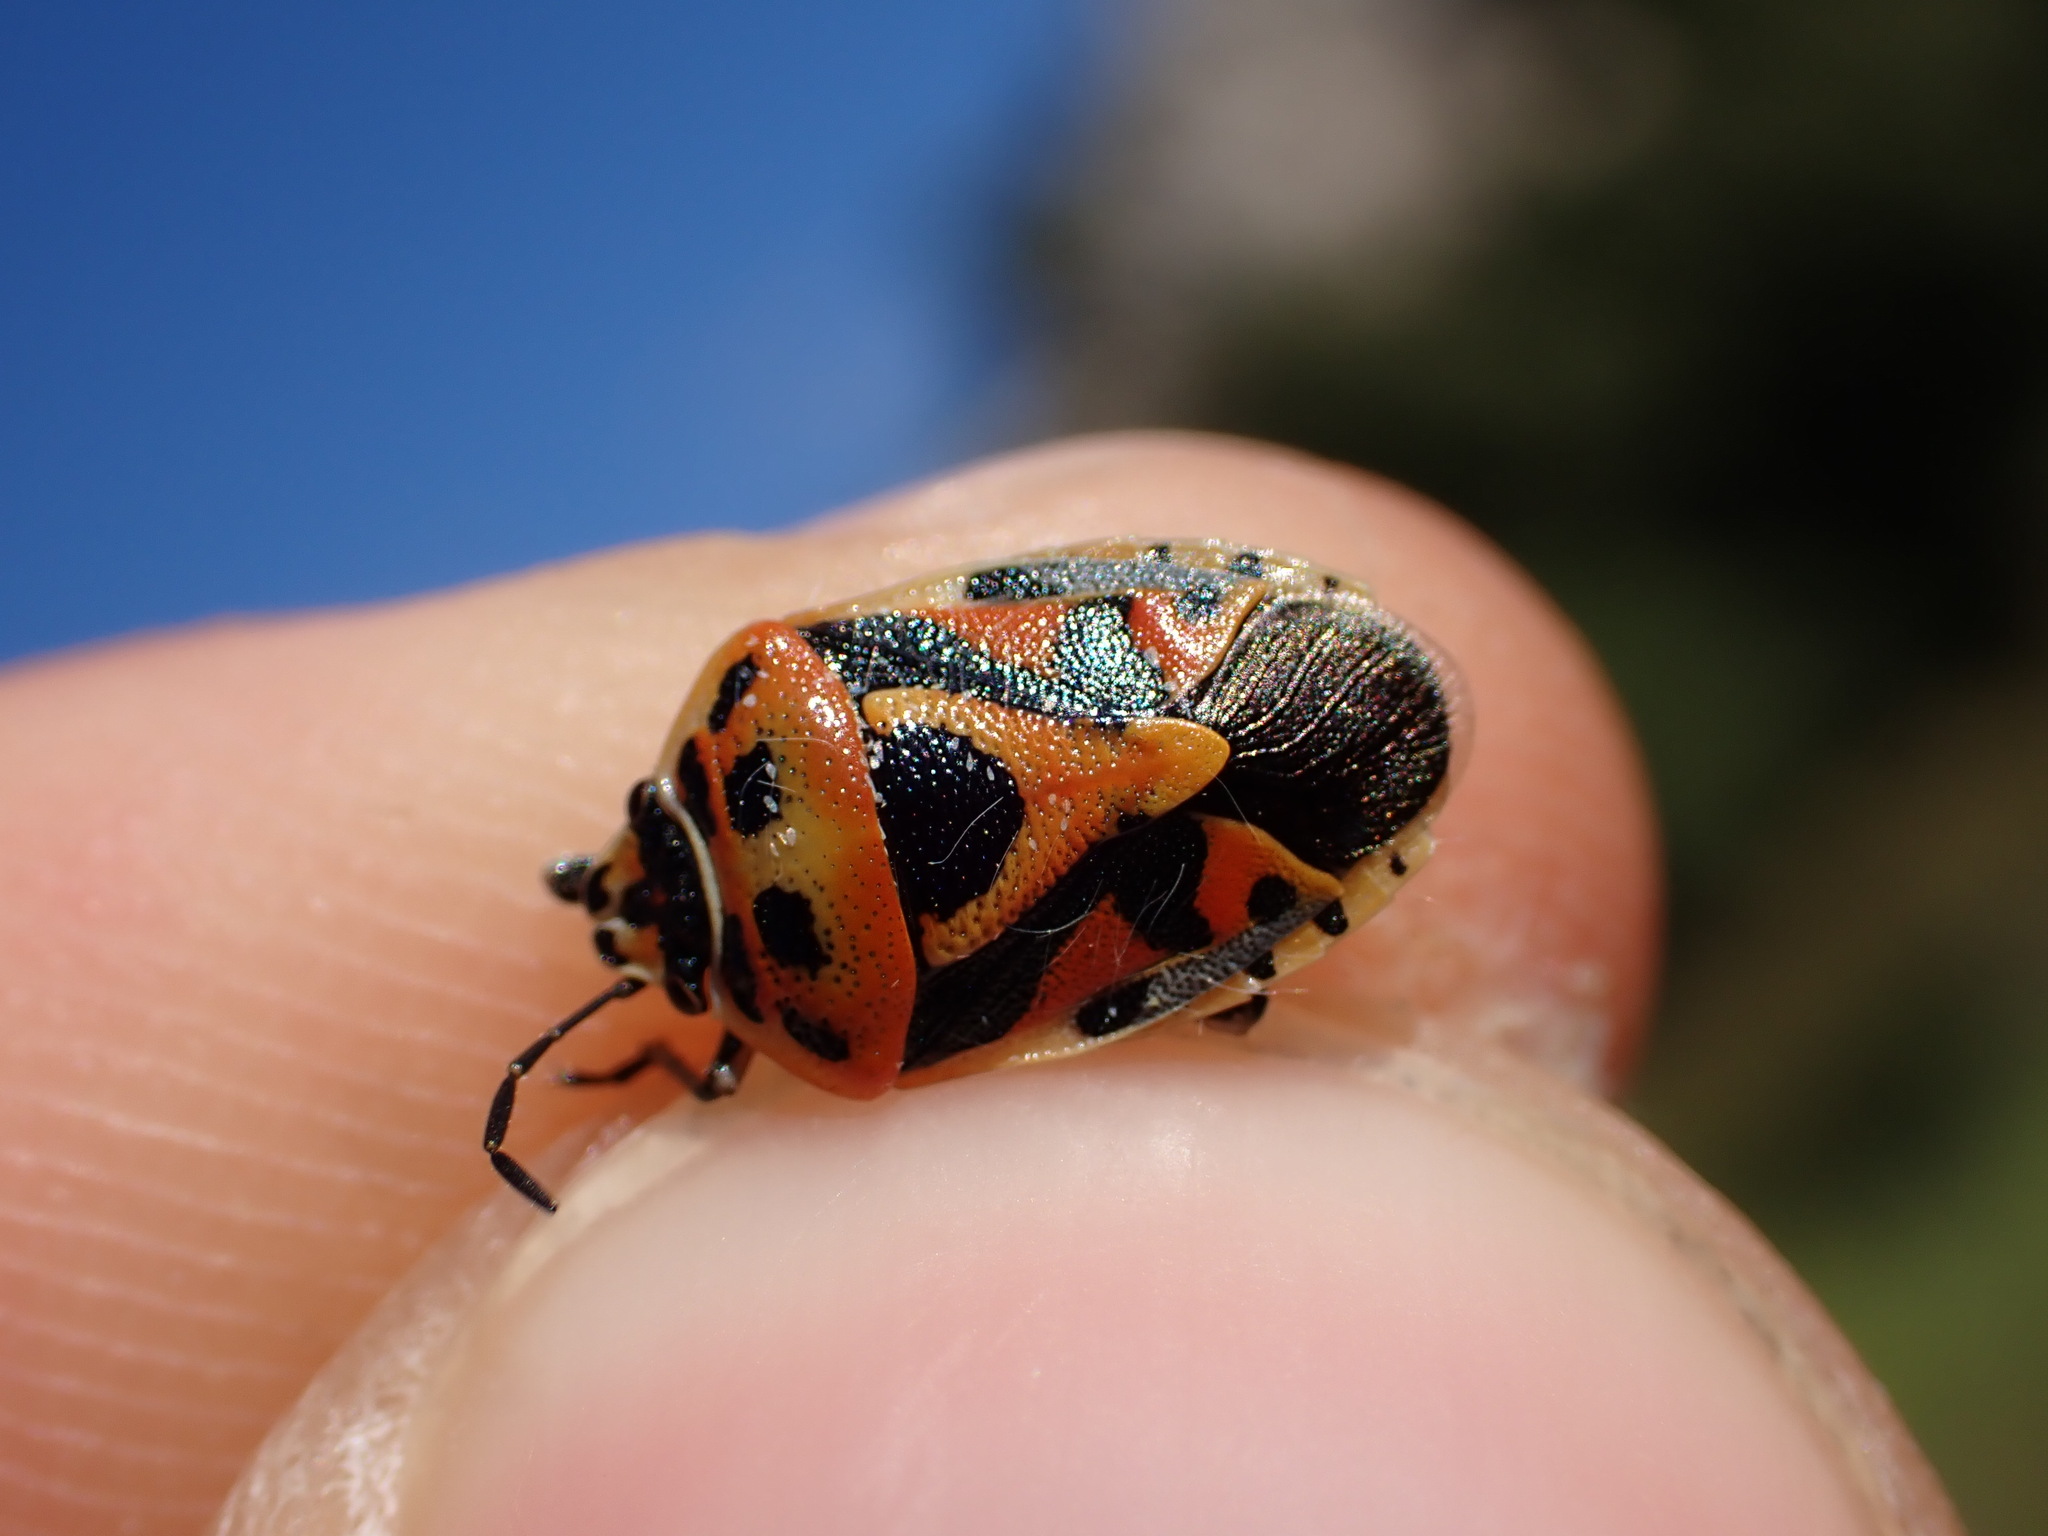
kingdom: Animalia
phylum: Arthropoda
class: Insecta
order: Hemiptera
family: Pentatomidae
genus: Eurydema
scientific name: Eurydema ornata
